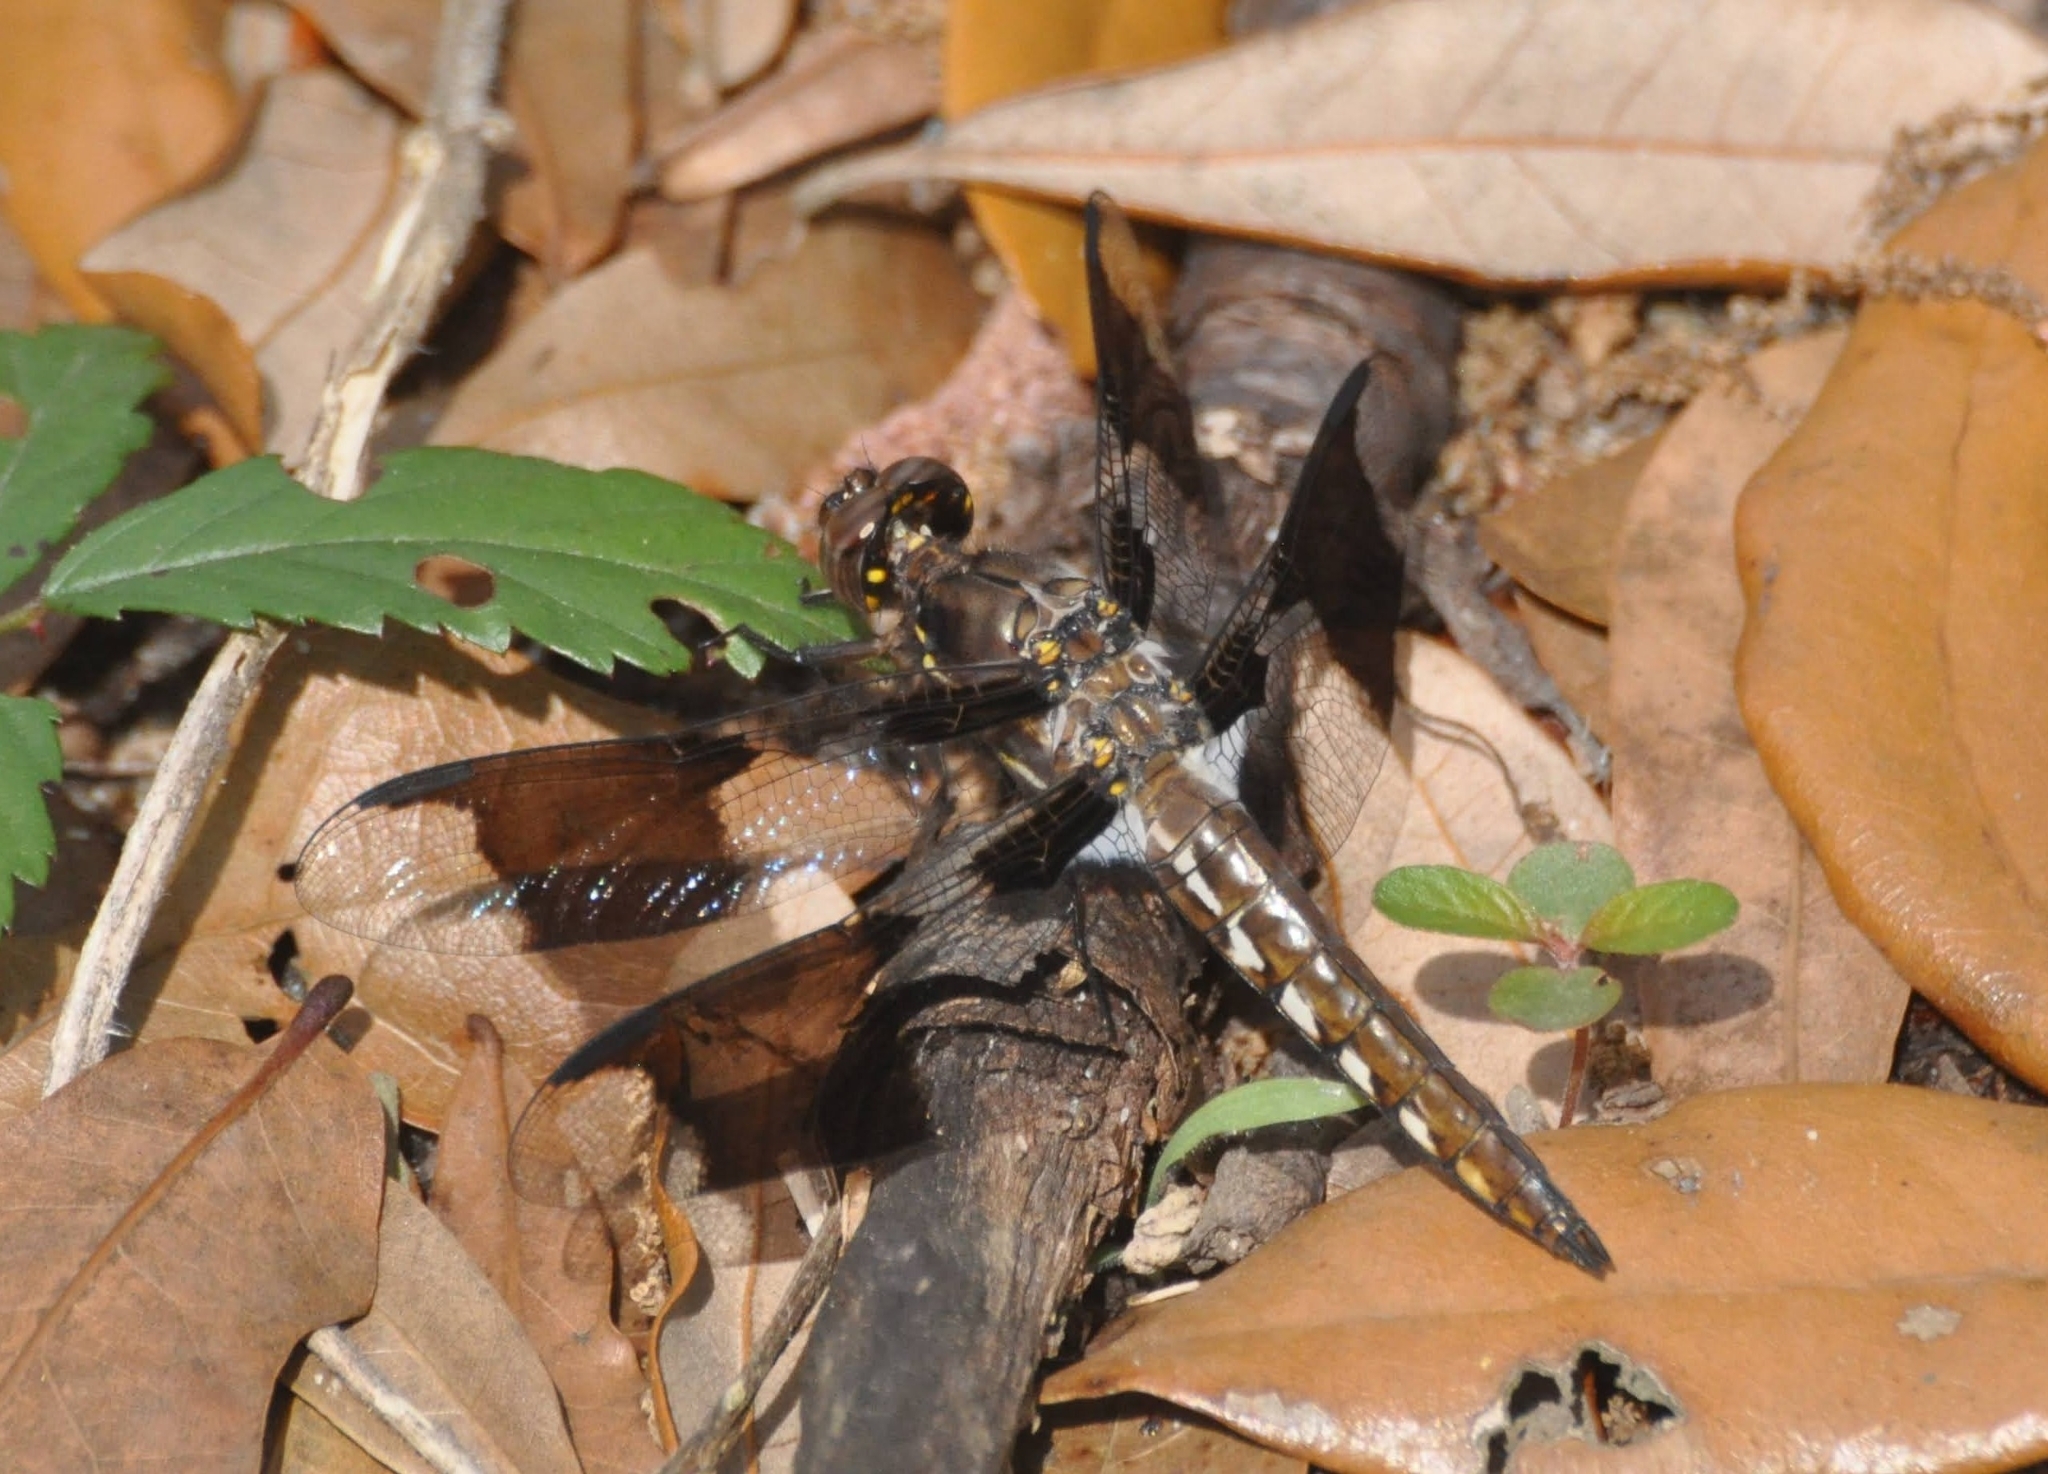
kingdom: Animalia
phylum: Arthropoda
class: Insecta
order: Odonata
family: Libellulidae
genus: Plathemis
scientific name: Plathemis lydia
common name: Common whitetail
